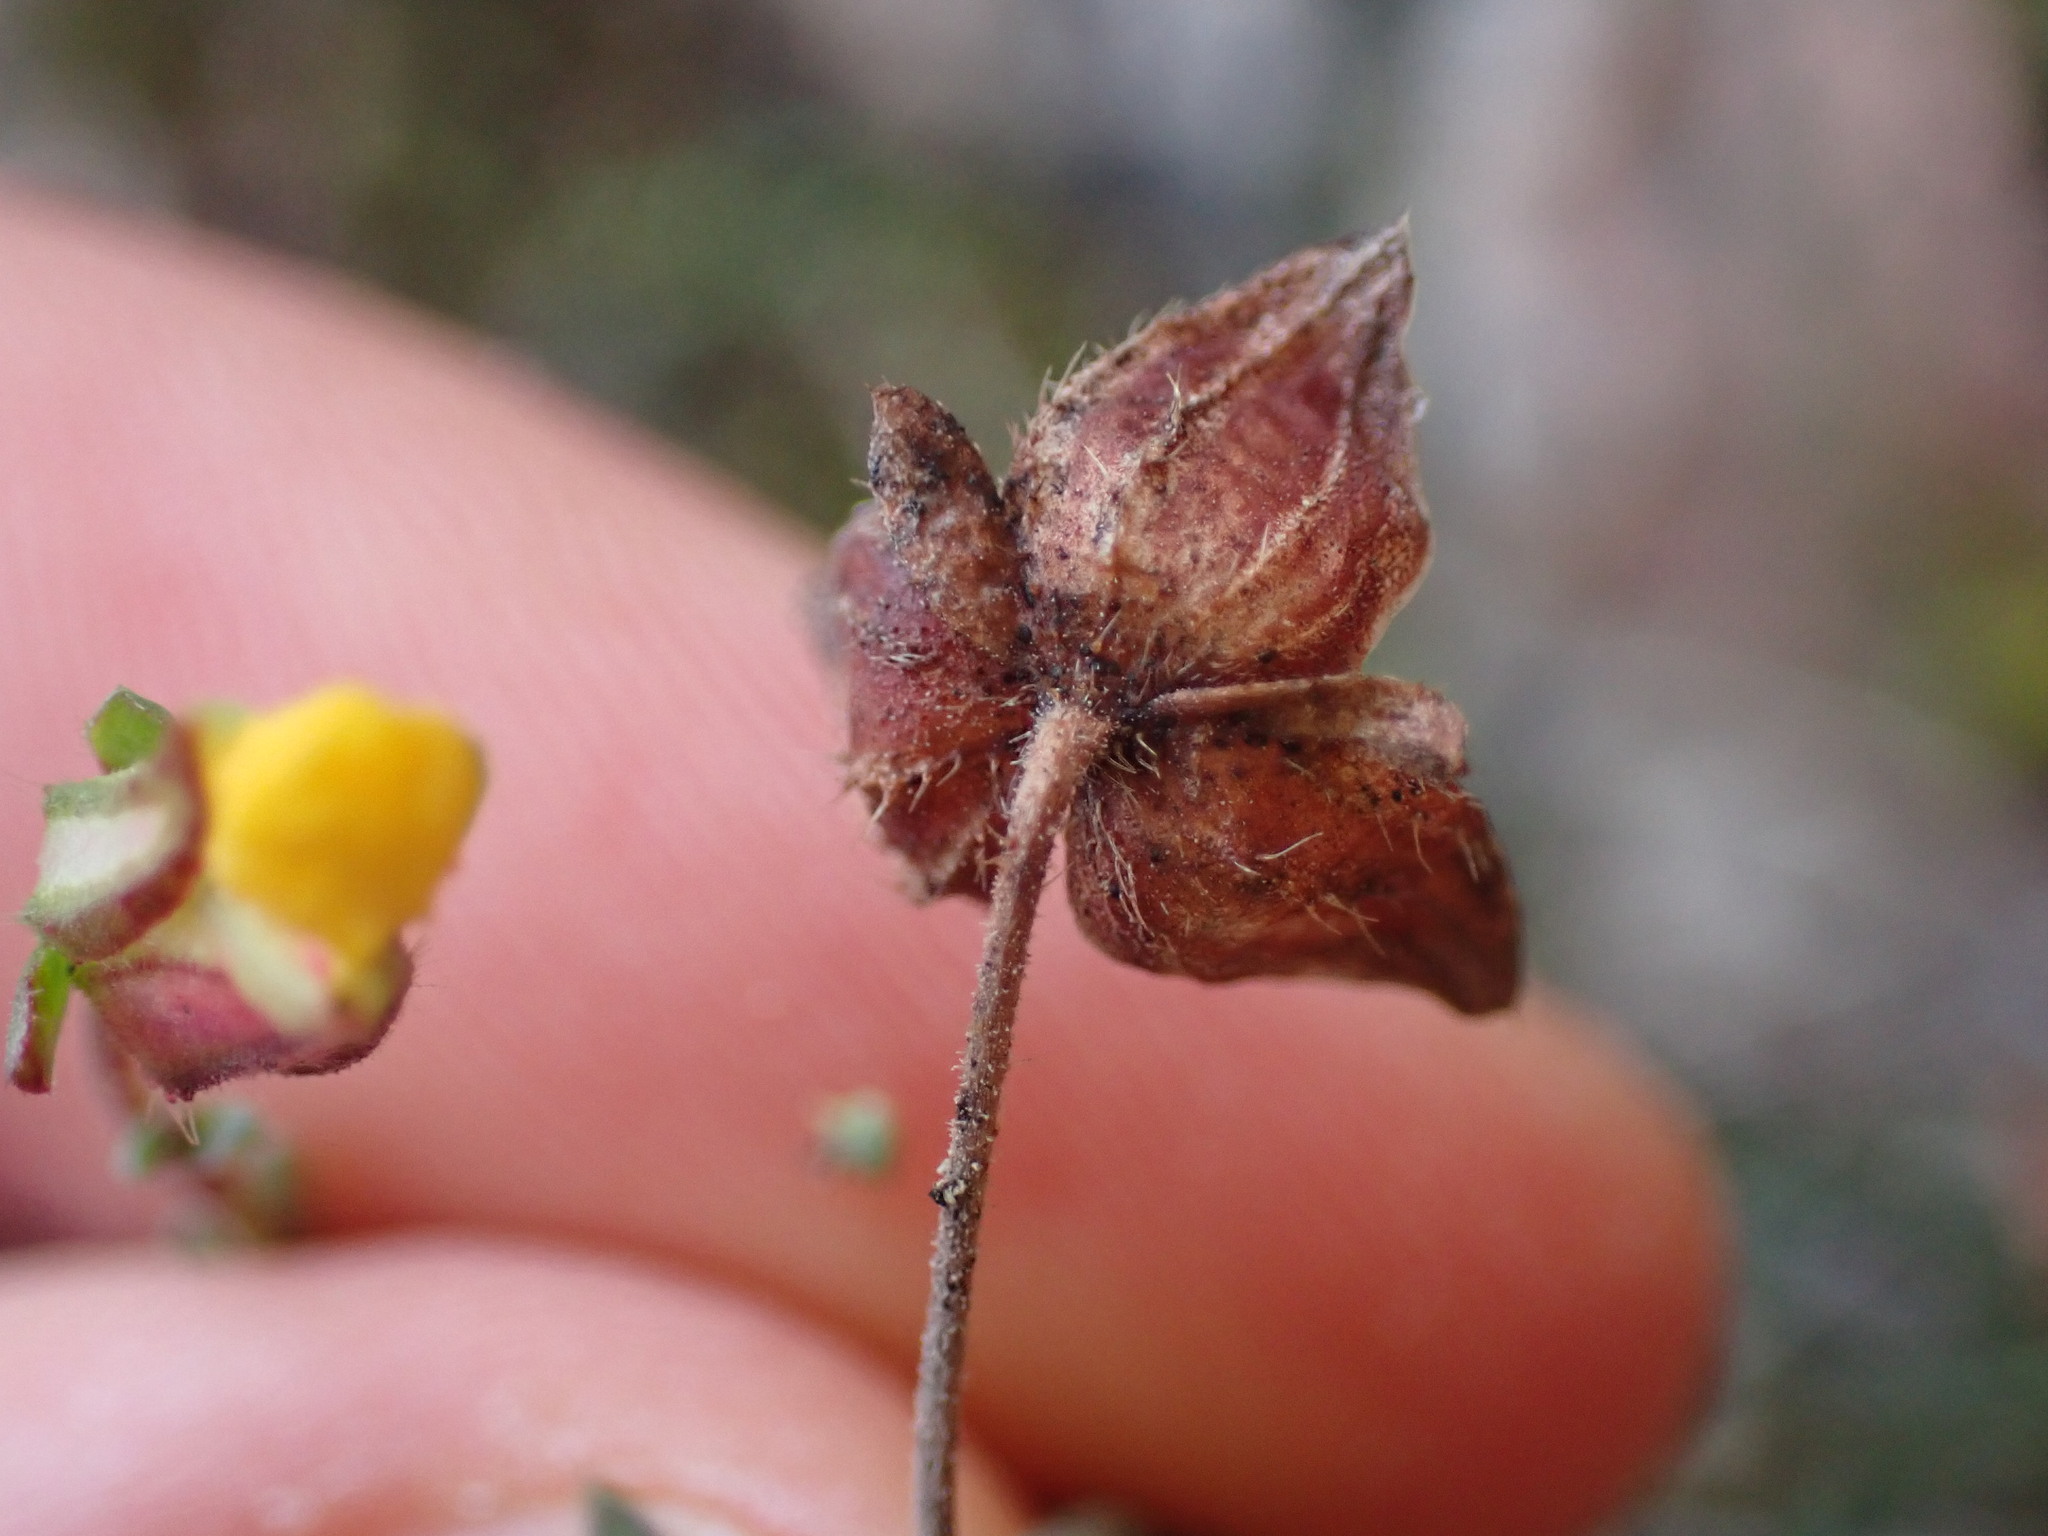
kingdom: Plantae
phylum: Tracheophyta
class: Magnoliopsida
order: Malvales
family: Cistaceae
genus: Fumana
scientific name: Fumana ericifolia
